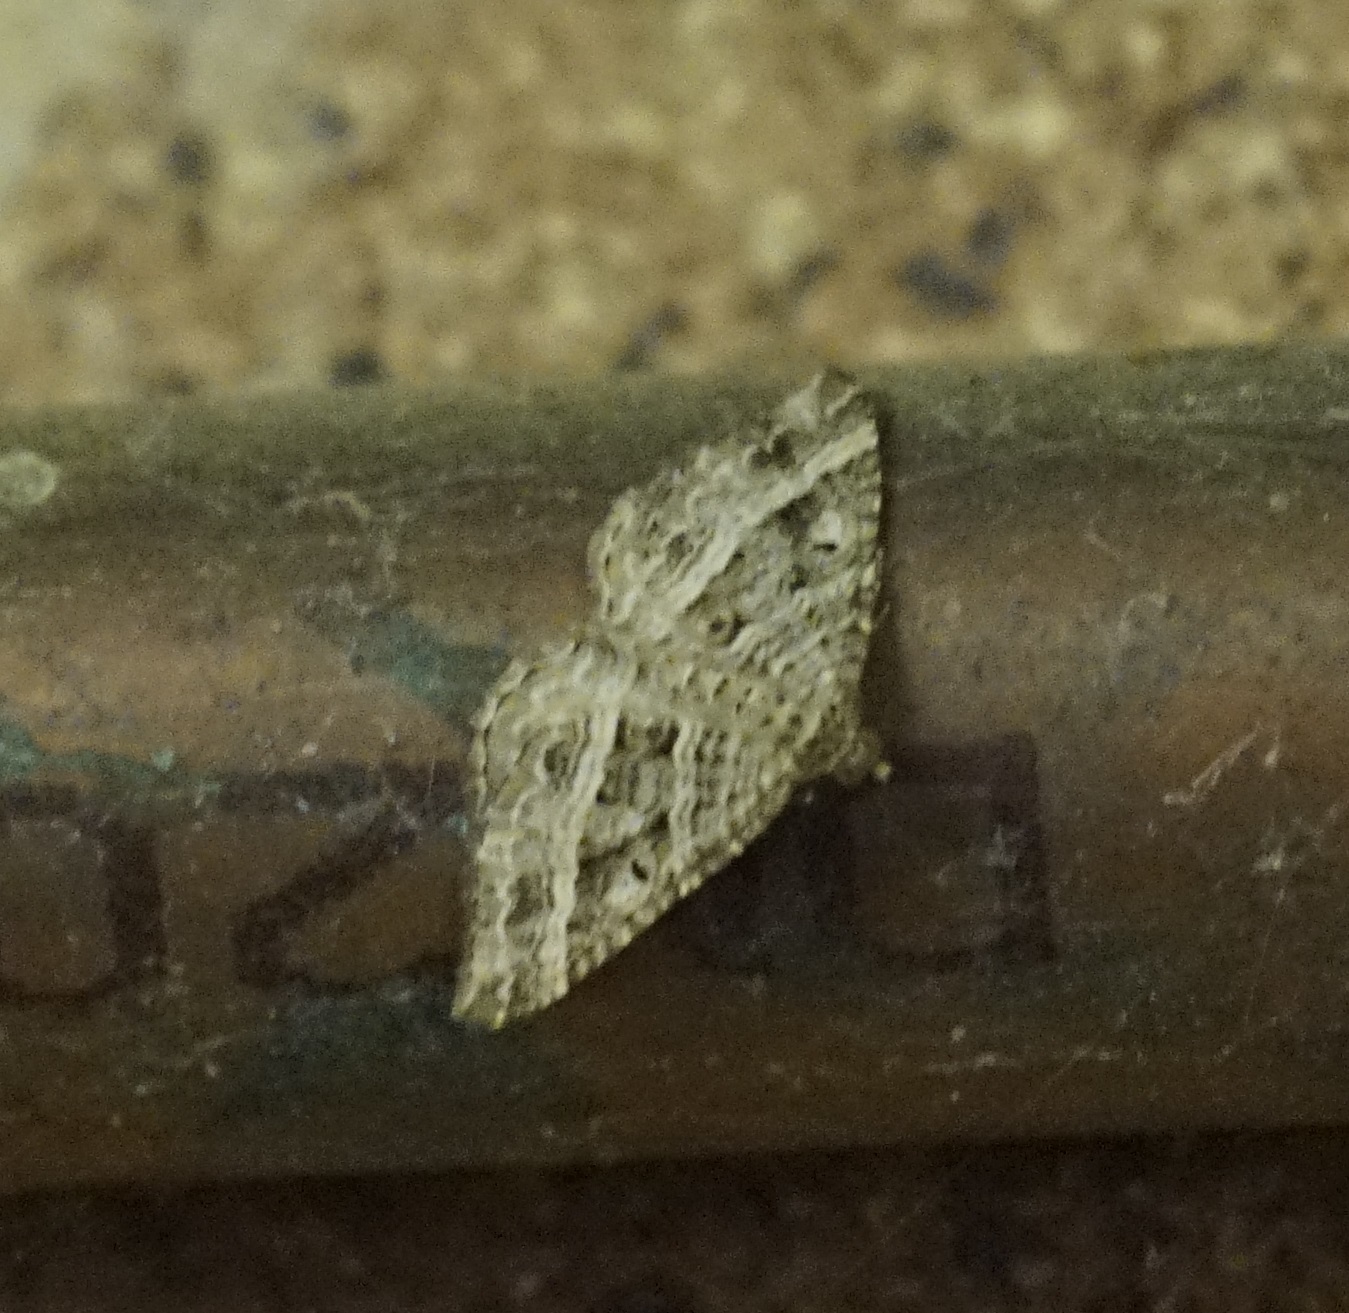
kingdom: Animalia
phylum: Arthropoda
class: Insecta
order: Lepidoptera
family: Geometridae
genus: Chrysolarentia
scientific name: Chrysolarentia subrectaria
